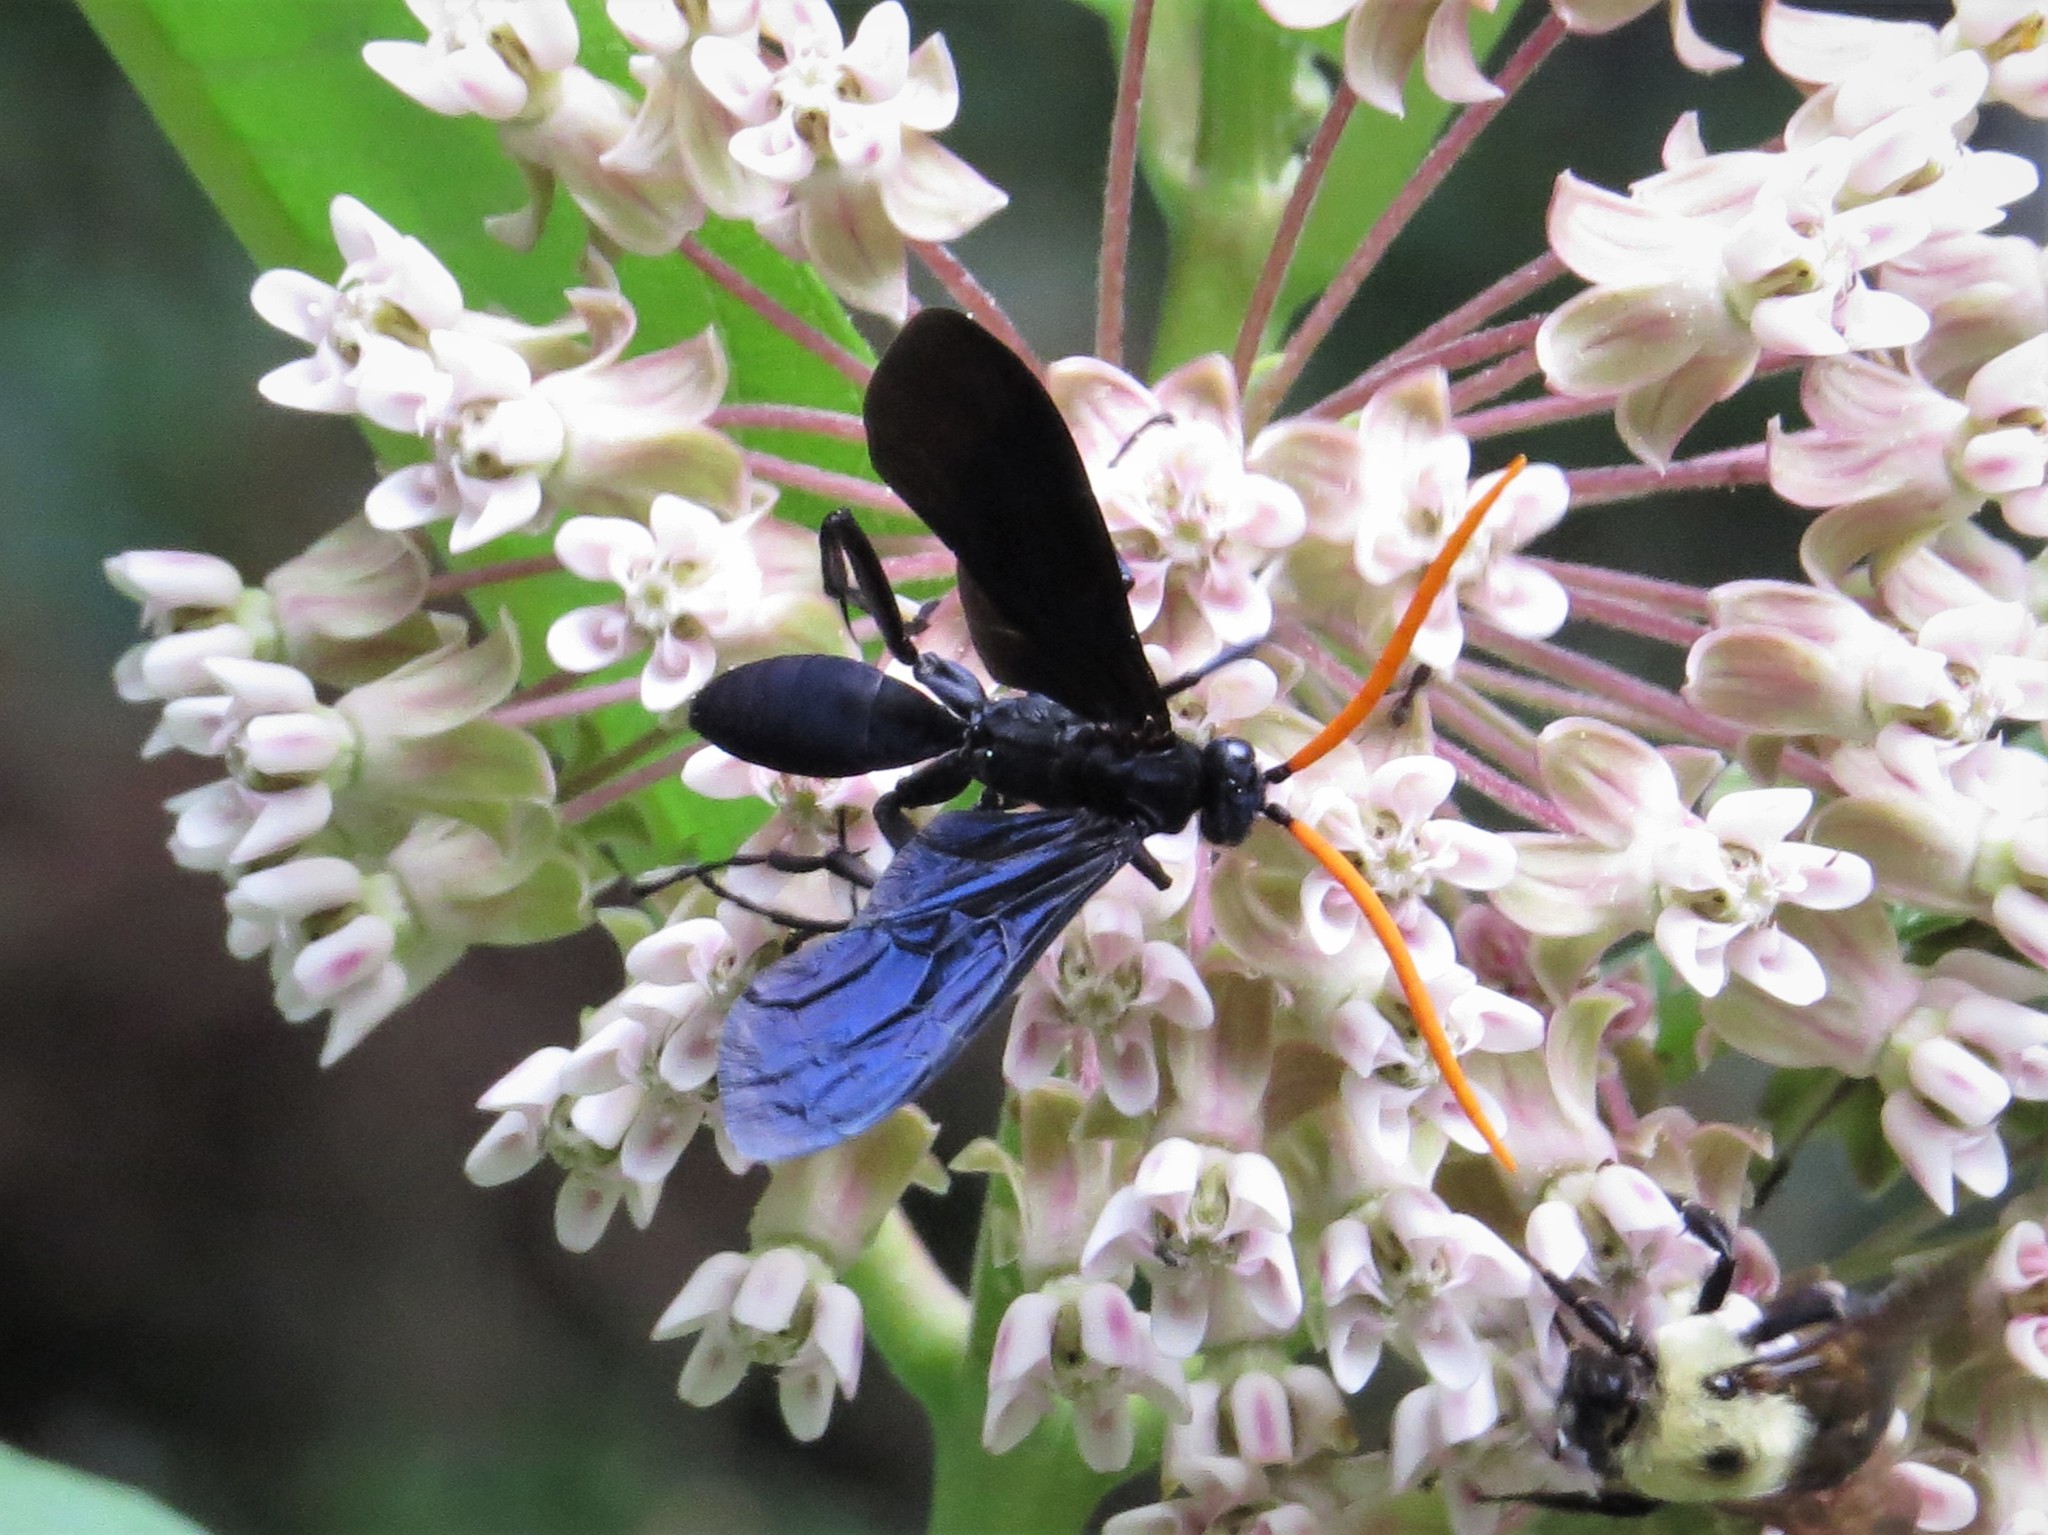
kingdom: Animalia
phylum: Arthropoda
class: Insecta
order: Hymenoptera
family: Pompilidae
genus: Pepsis
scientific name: Pepsis menechma
